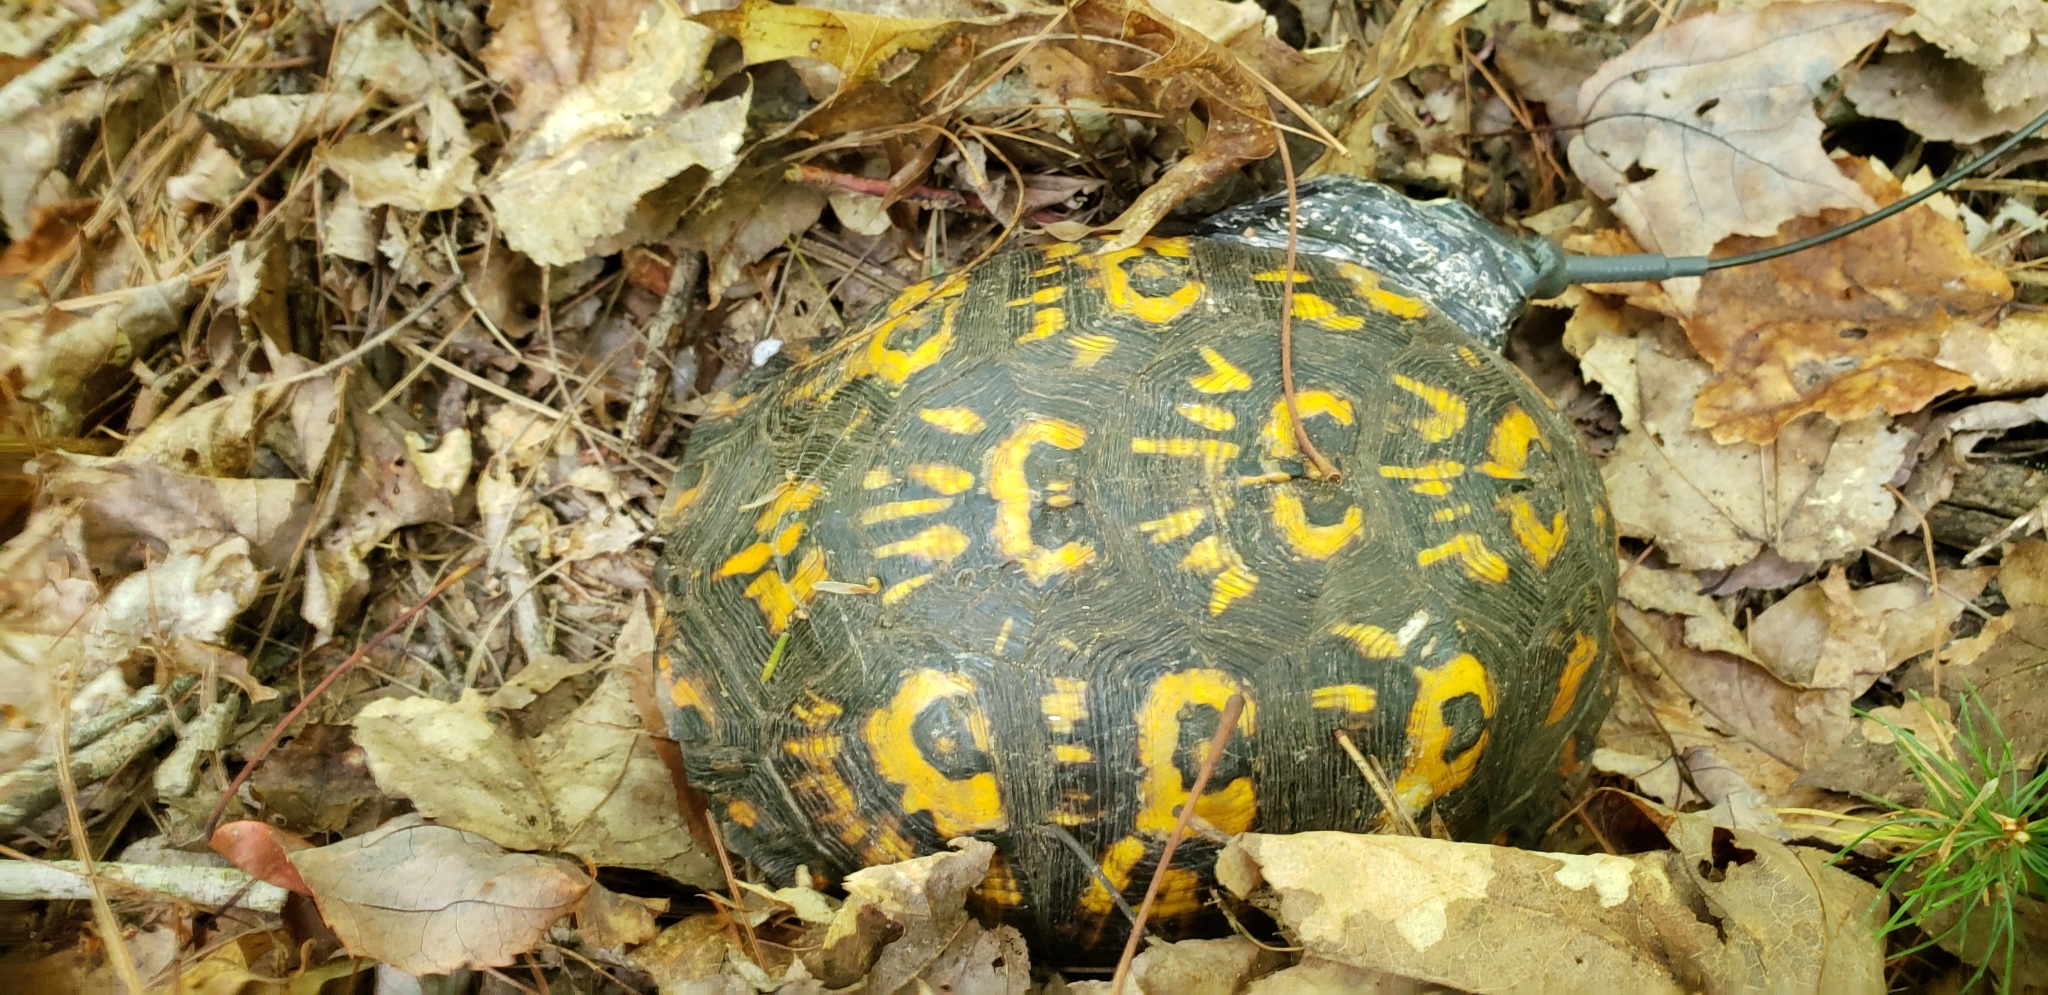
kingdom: Animalia
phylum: Chordata
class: Testudines
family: Emydidae
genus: Terrapene
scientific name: Terrapene carolina
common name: Common box turtle
